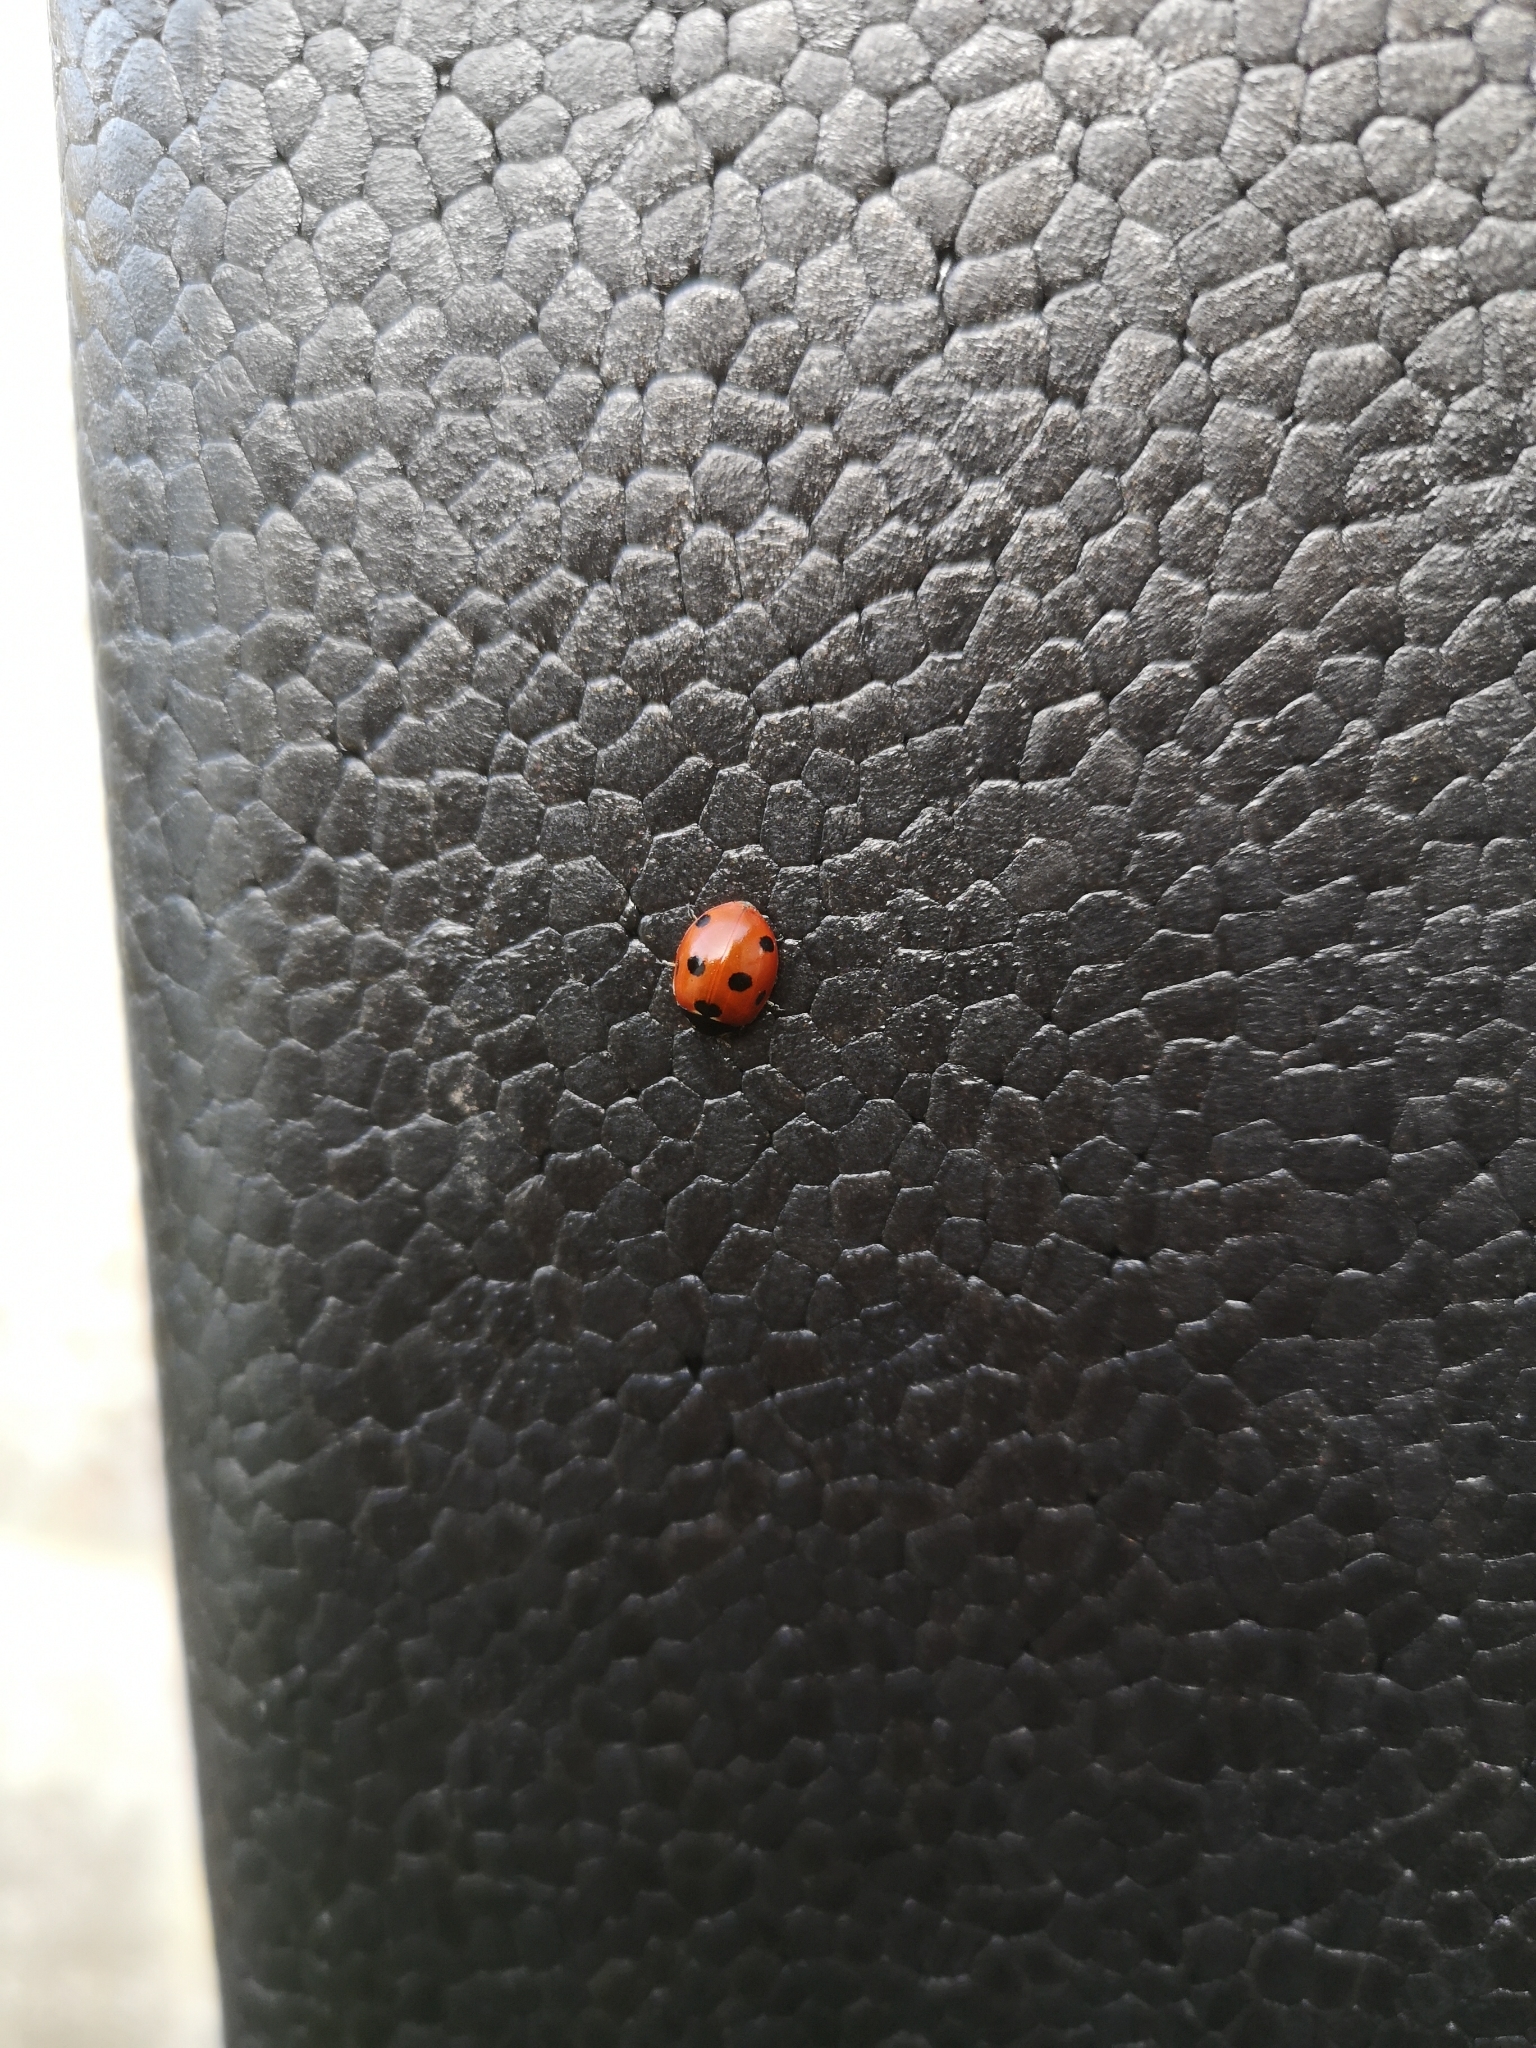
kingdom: Animalia
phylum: Arthropoda
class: Insecta
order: Coleoptera
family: Coccinellidae
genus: Coccinella
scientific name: Coccinella septempunctata
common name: Sevenspotted lady beetle
